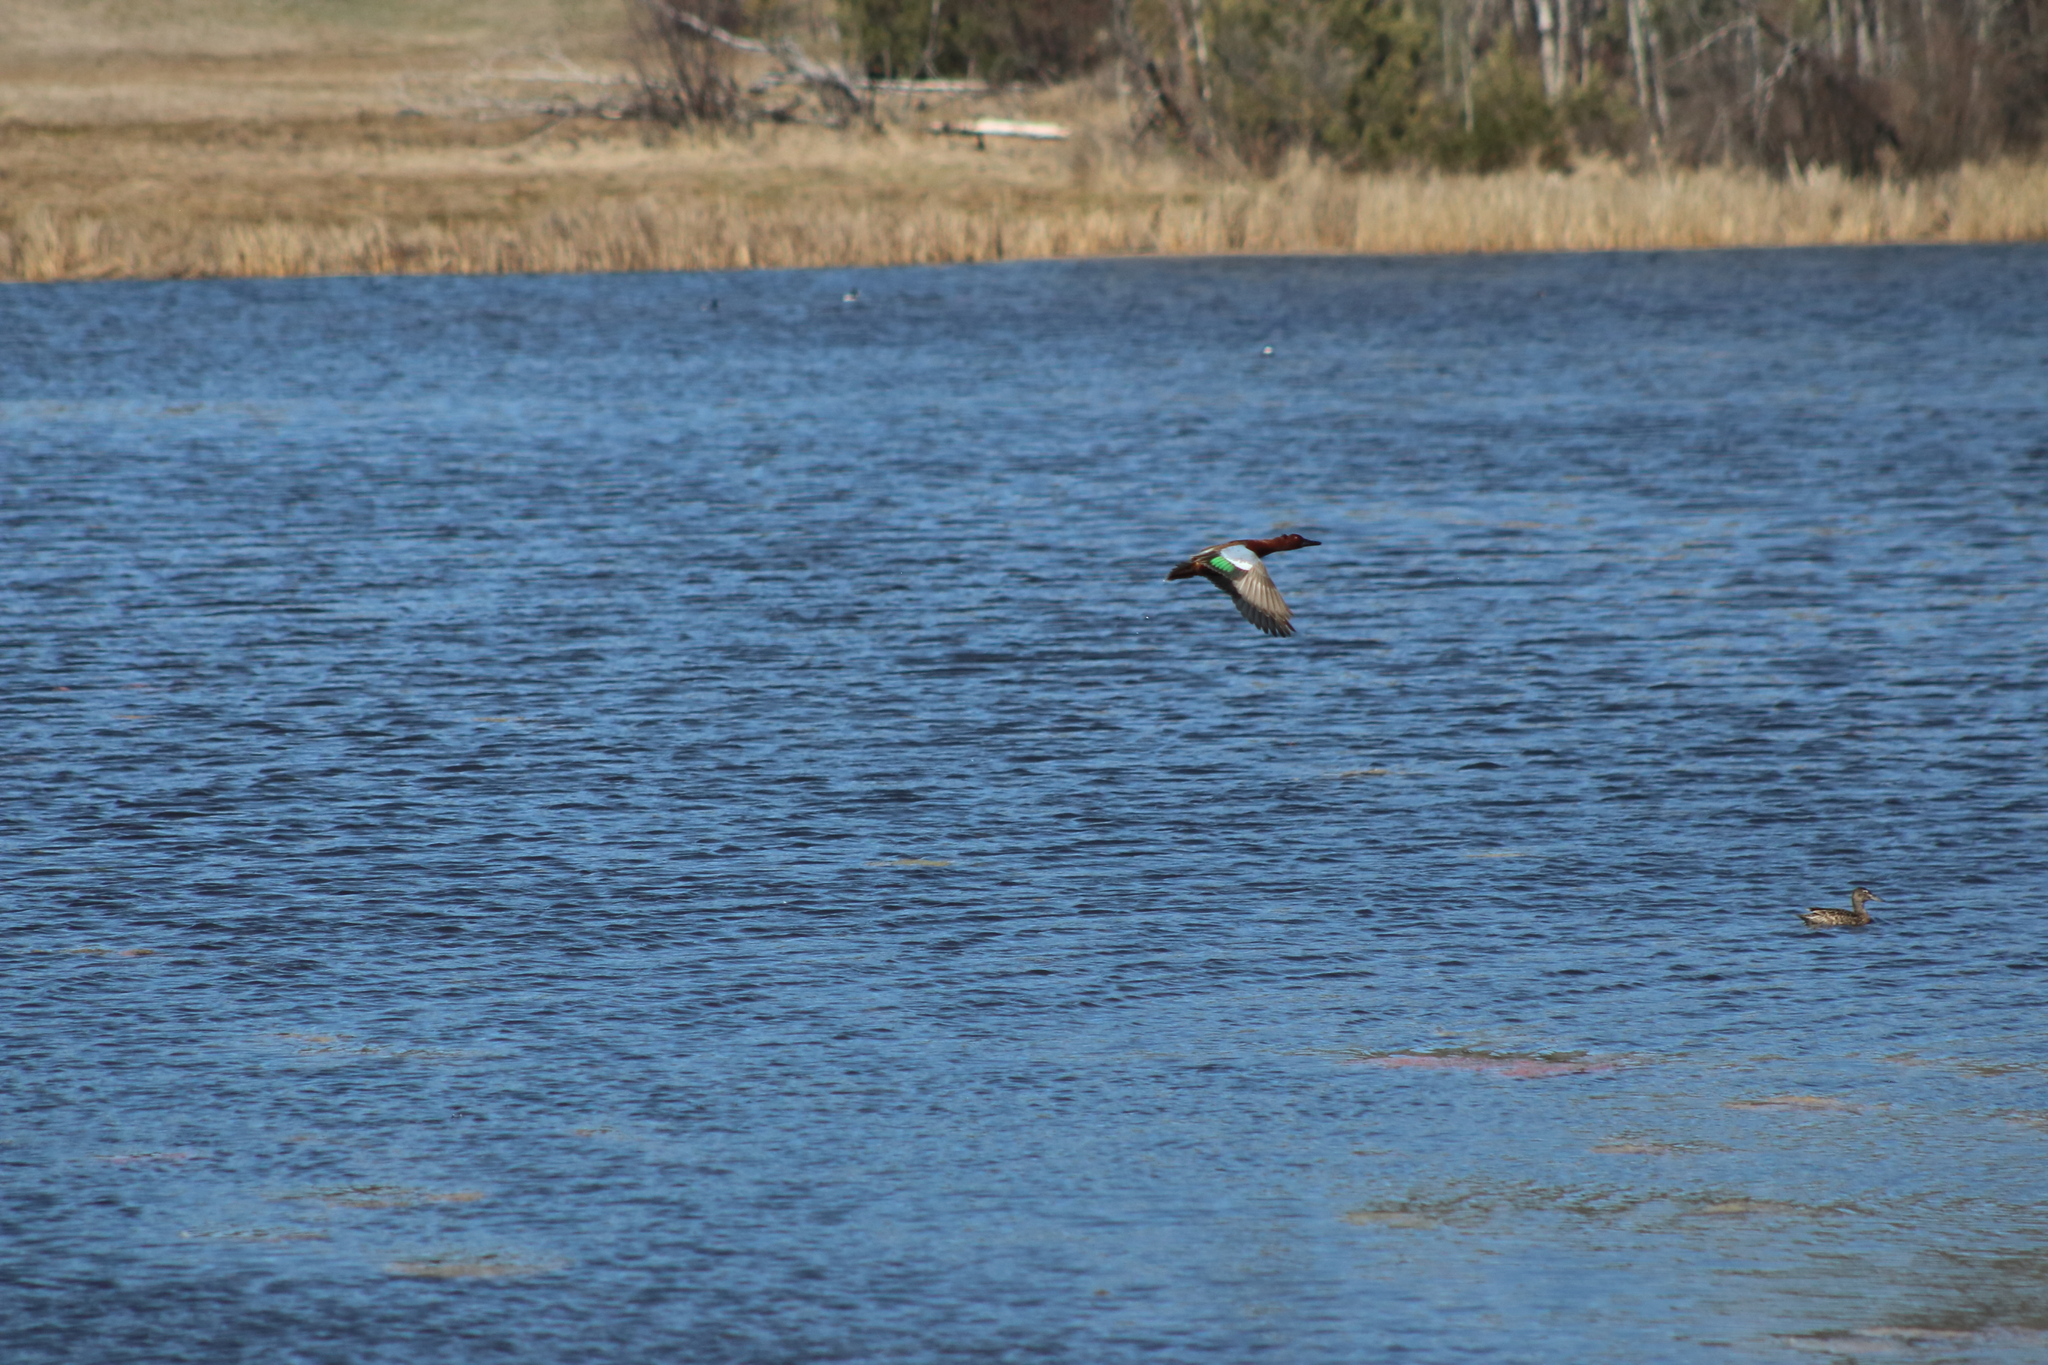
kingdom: Animalia
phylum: Chordata
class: Aves
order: Anseriformes
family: Anatidae
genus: Spatula
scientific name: Spatula cyanoptera
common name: Cinnamon teal
